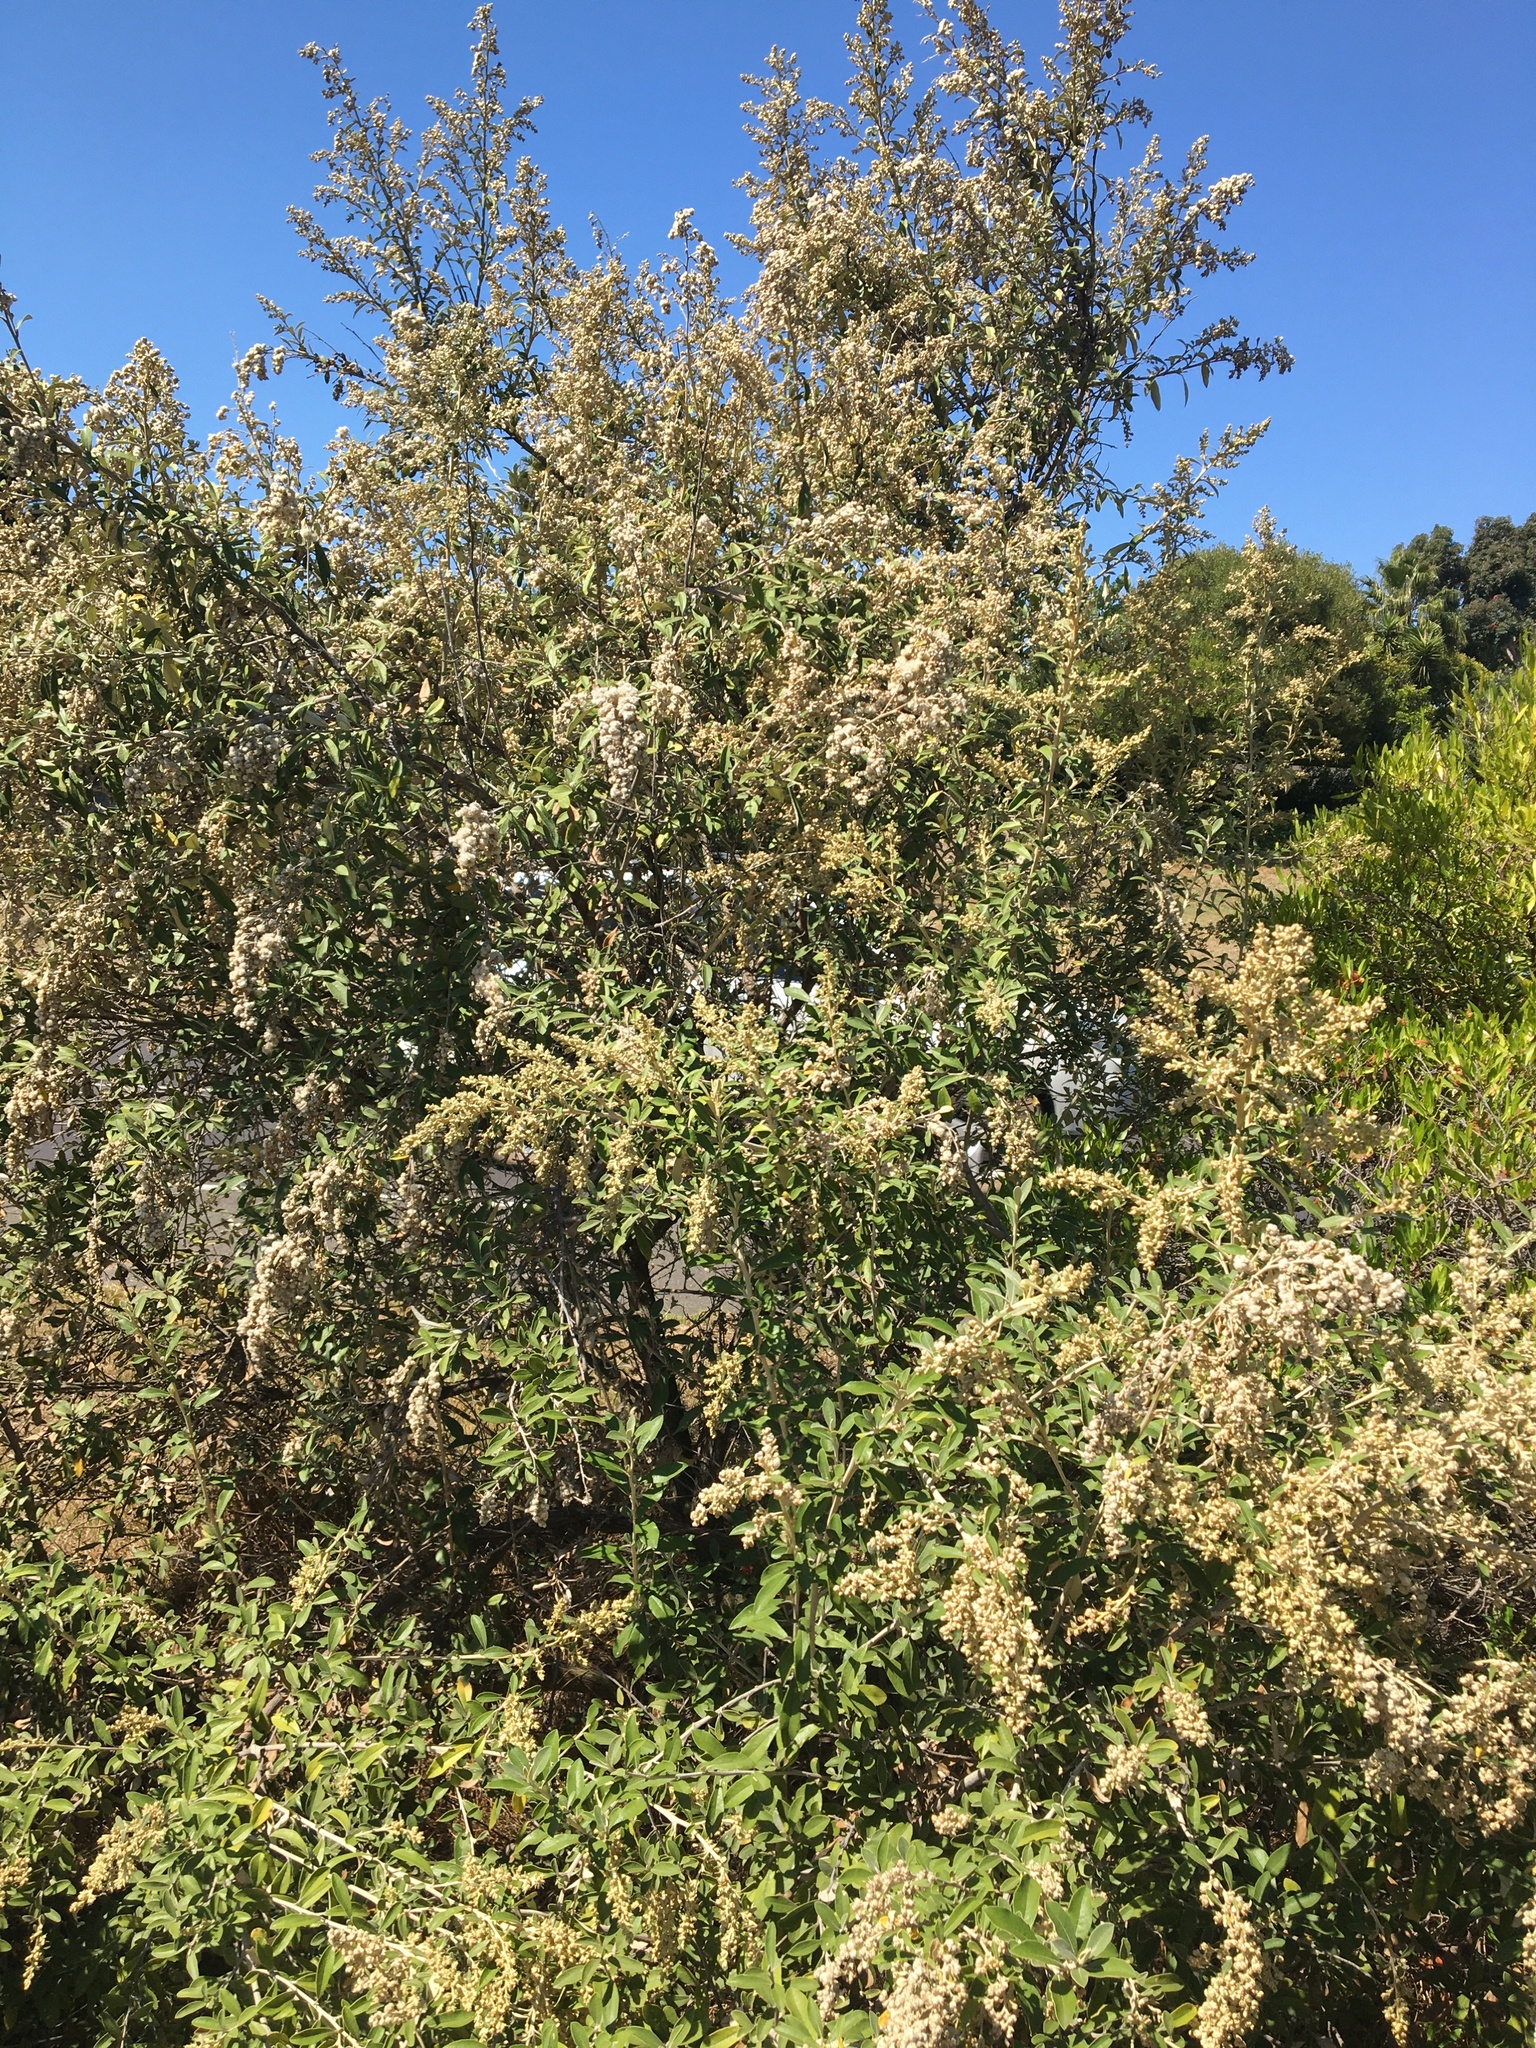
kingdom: Plantae
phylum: Tracheophyta
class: Magnoliopsida
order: Asterales
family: Asteraceae
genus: Tarchonanthus
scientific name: Tarchonanthus littoralis
